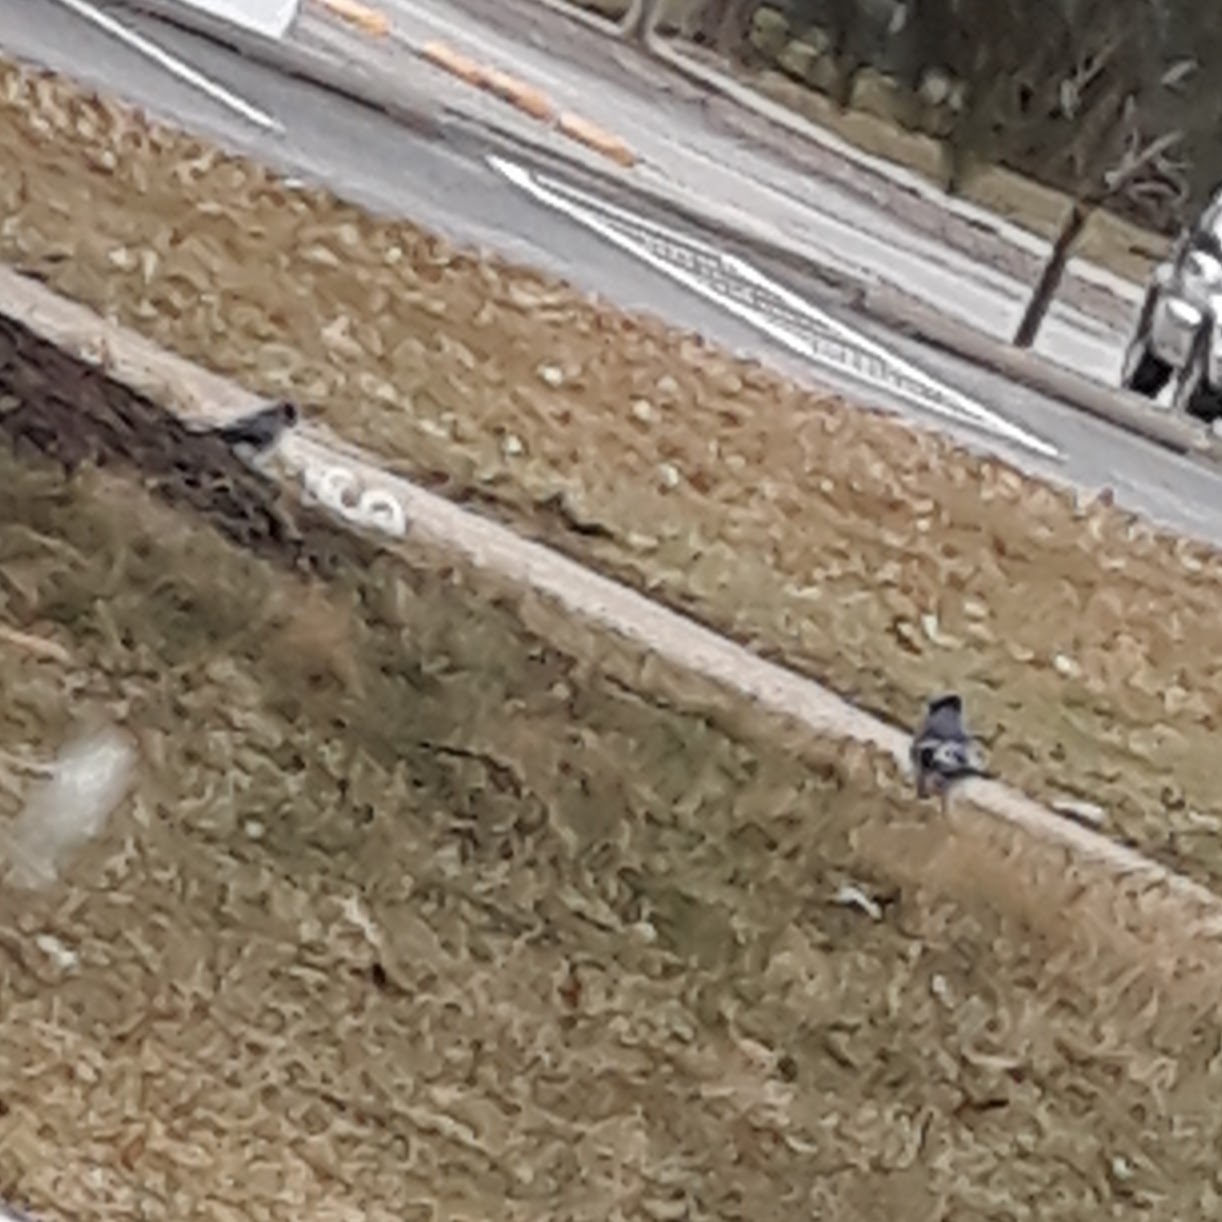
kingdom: Animalia
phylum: Chordata
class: Aves
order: Passeriformes
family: Corvidae
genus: Cyanocitta
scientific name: Cyanocitta cristata
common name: Blue jay
